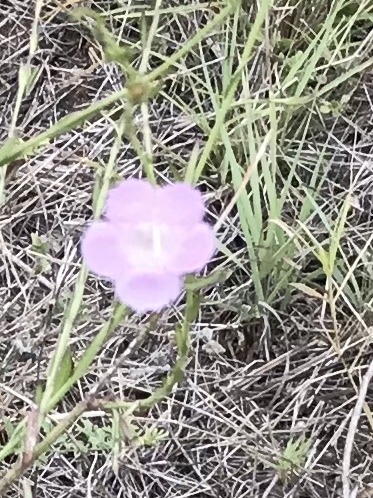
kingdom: Plantae
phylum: Tracheophyta
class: Magnoliopsida
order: Lamiales
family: Orobanchaceae
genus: Agalinis
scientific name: Agalinis heterophylla
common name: Prairie agalinis
